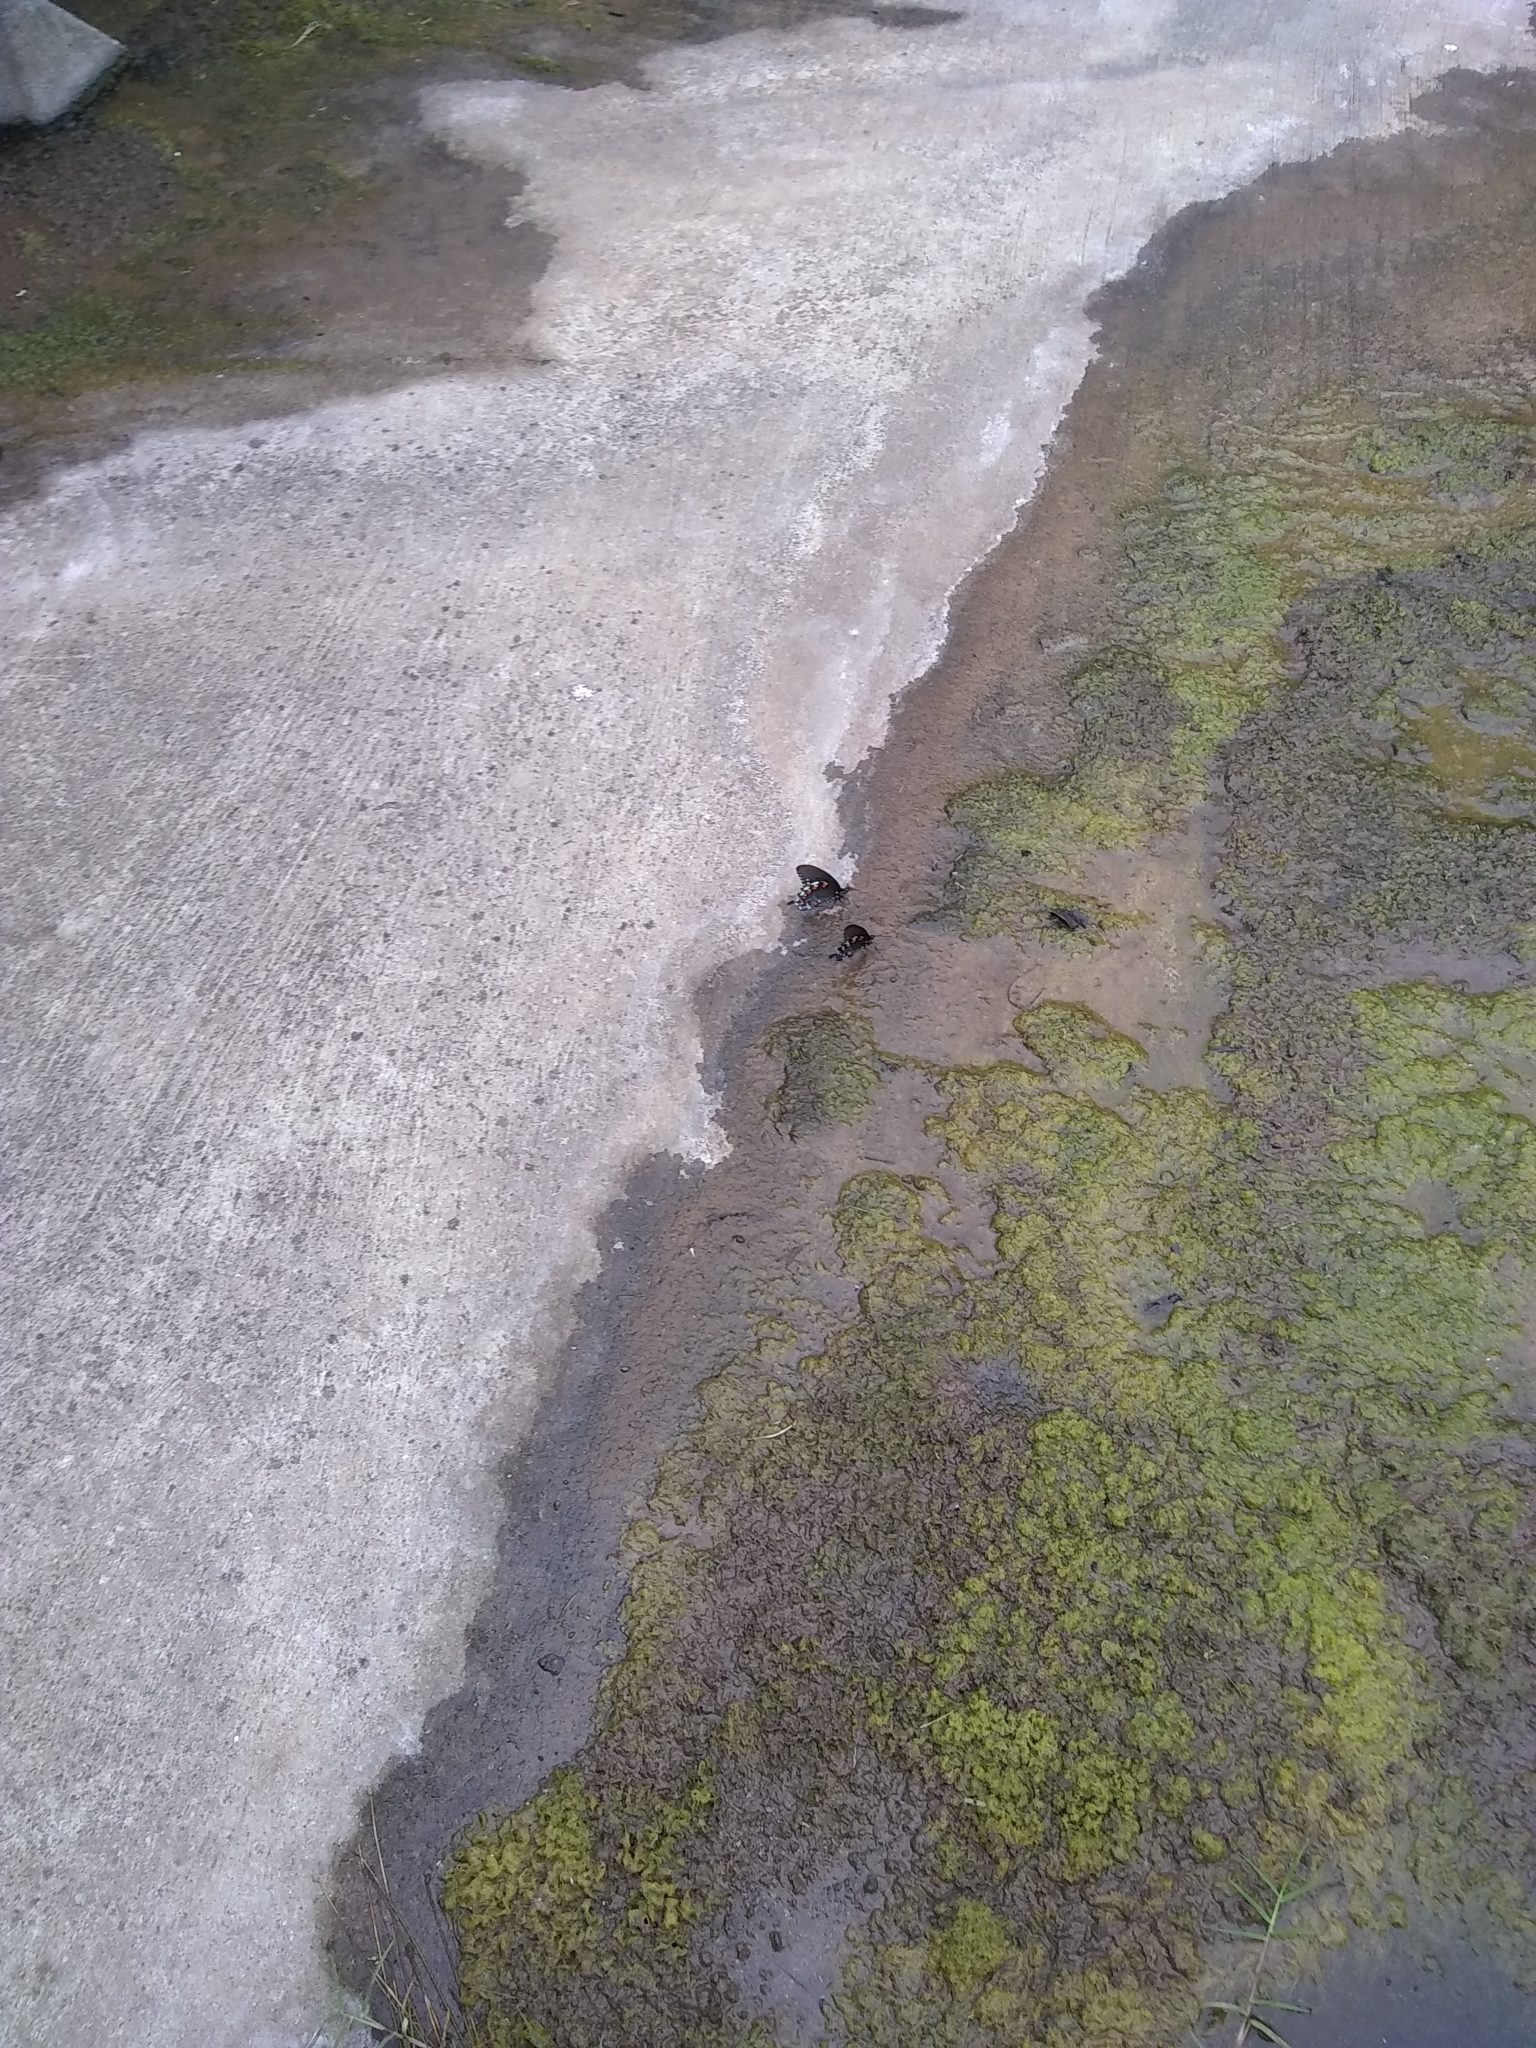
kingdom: Animalia
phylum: Arthropoda
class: Insecta
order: Lepidoptera
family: Papilionidae
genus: Battus
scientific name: Battus philenor
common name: Pipevine swallowtail
